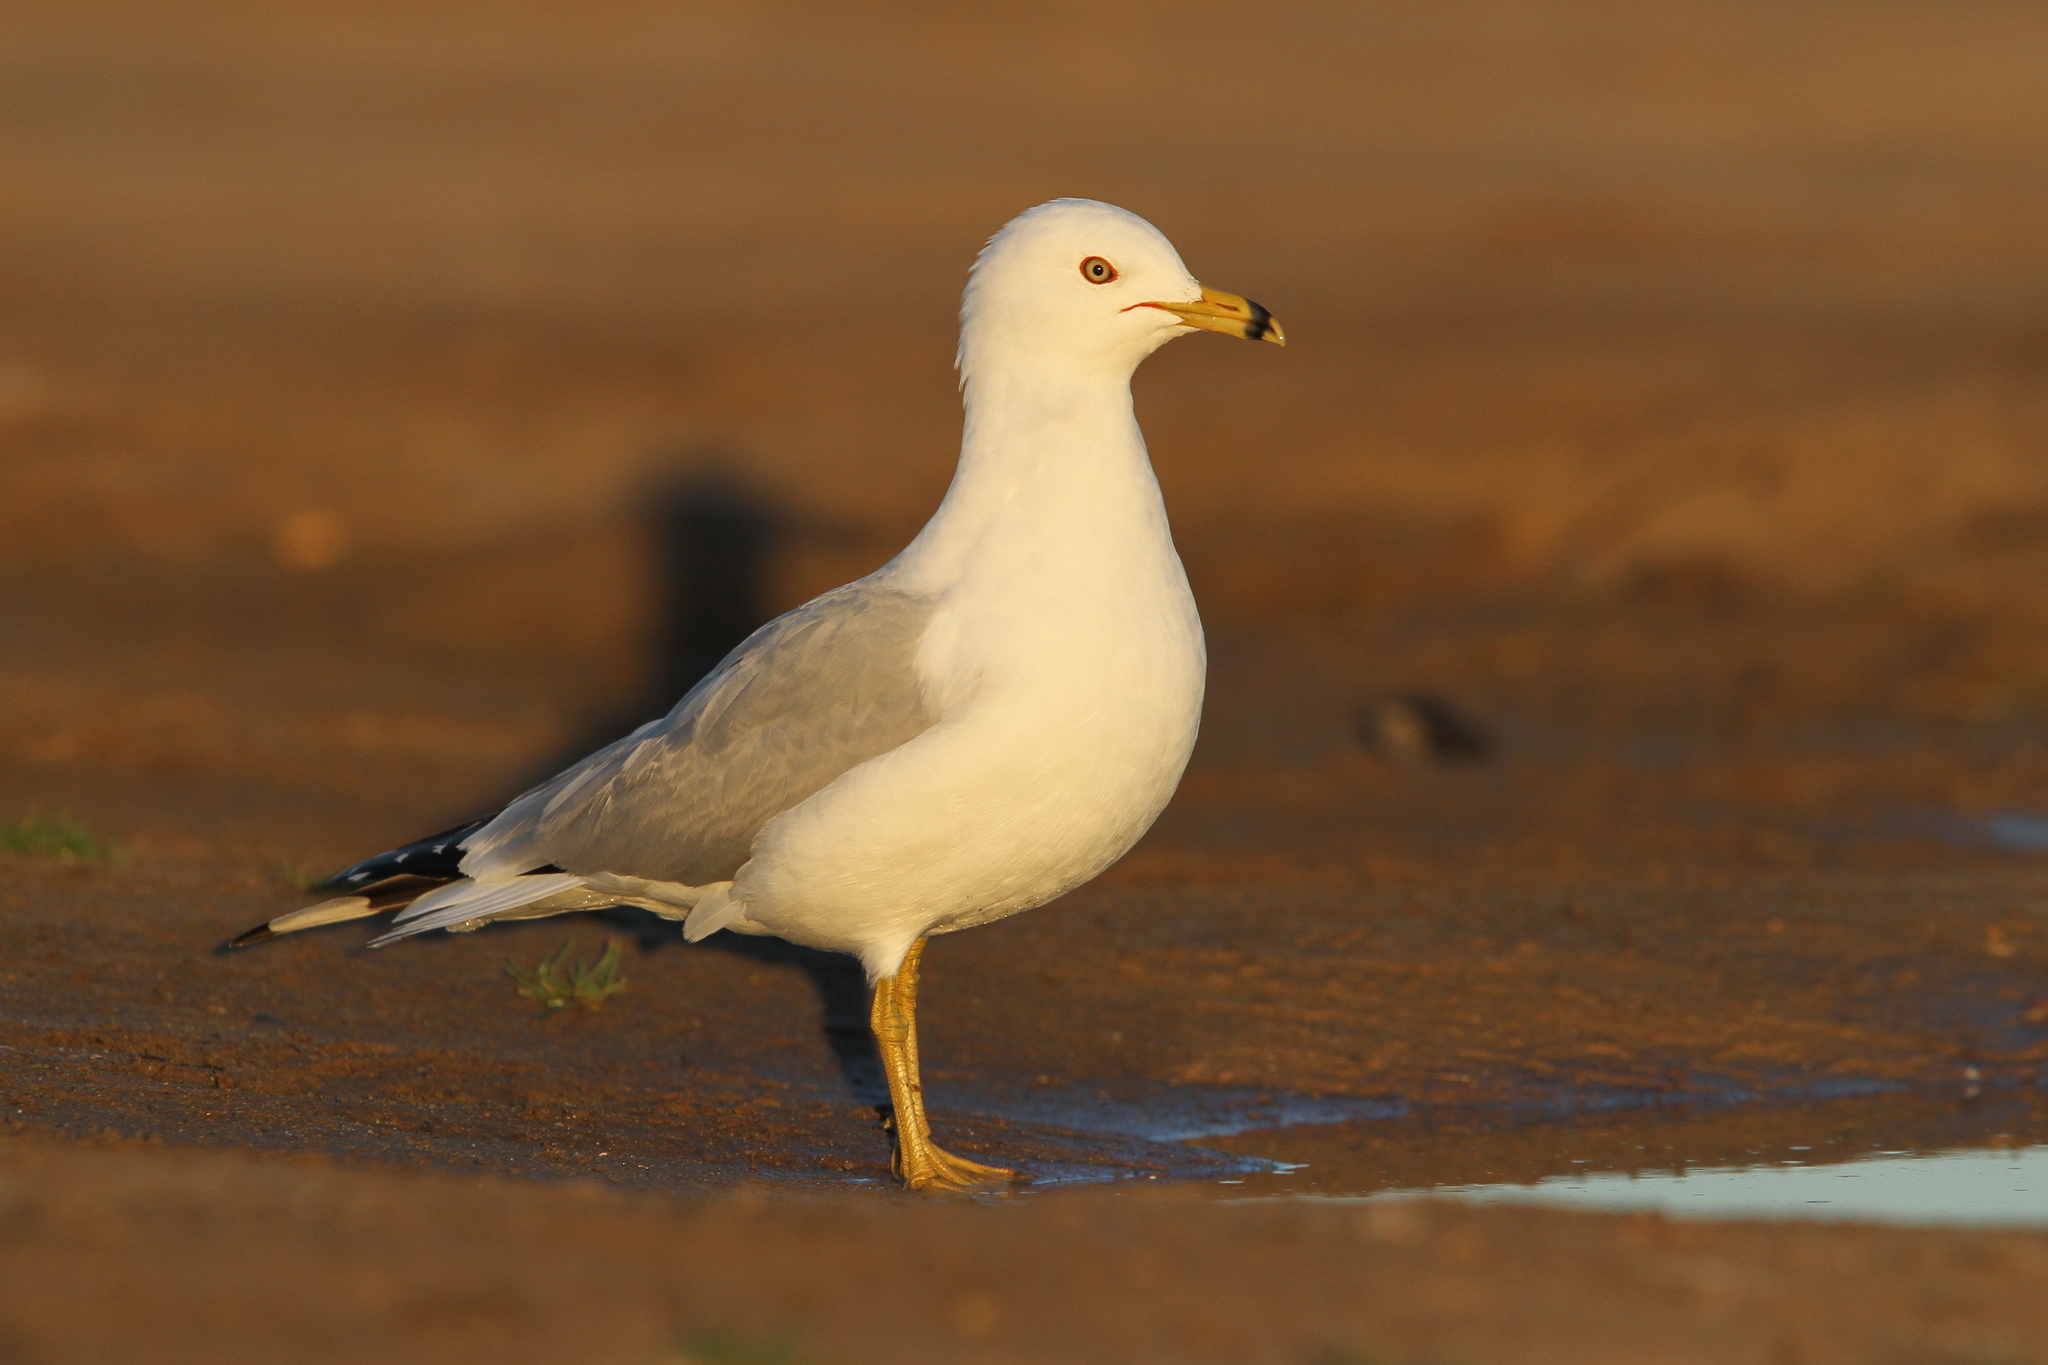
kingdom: Animalia
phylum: Chordata
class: Aves
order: Charadriiformes
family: Laridae
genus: Larus
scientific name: Larus delawarensis
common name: Ring-billed gull
